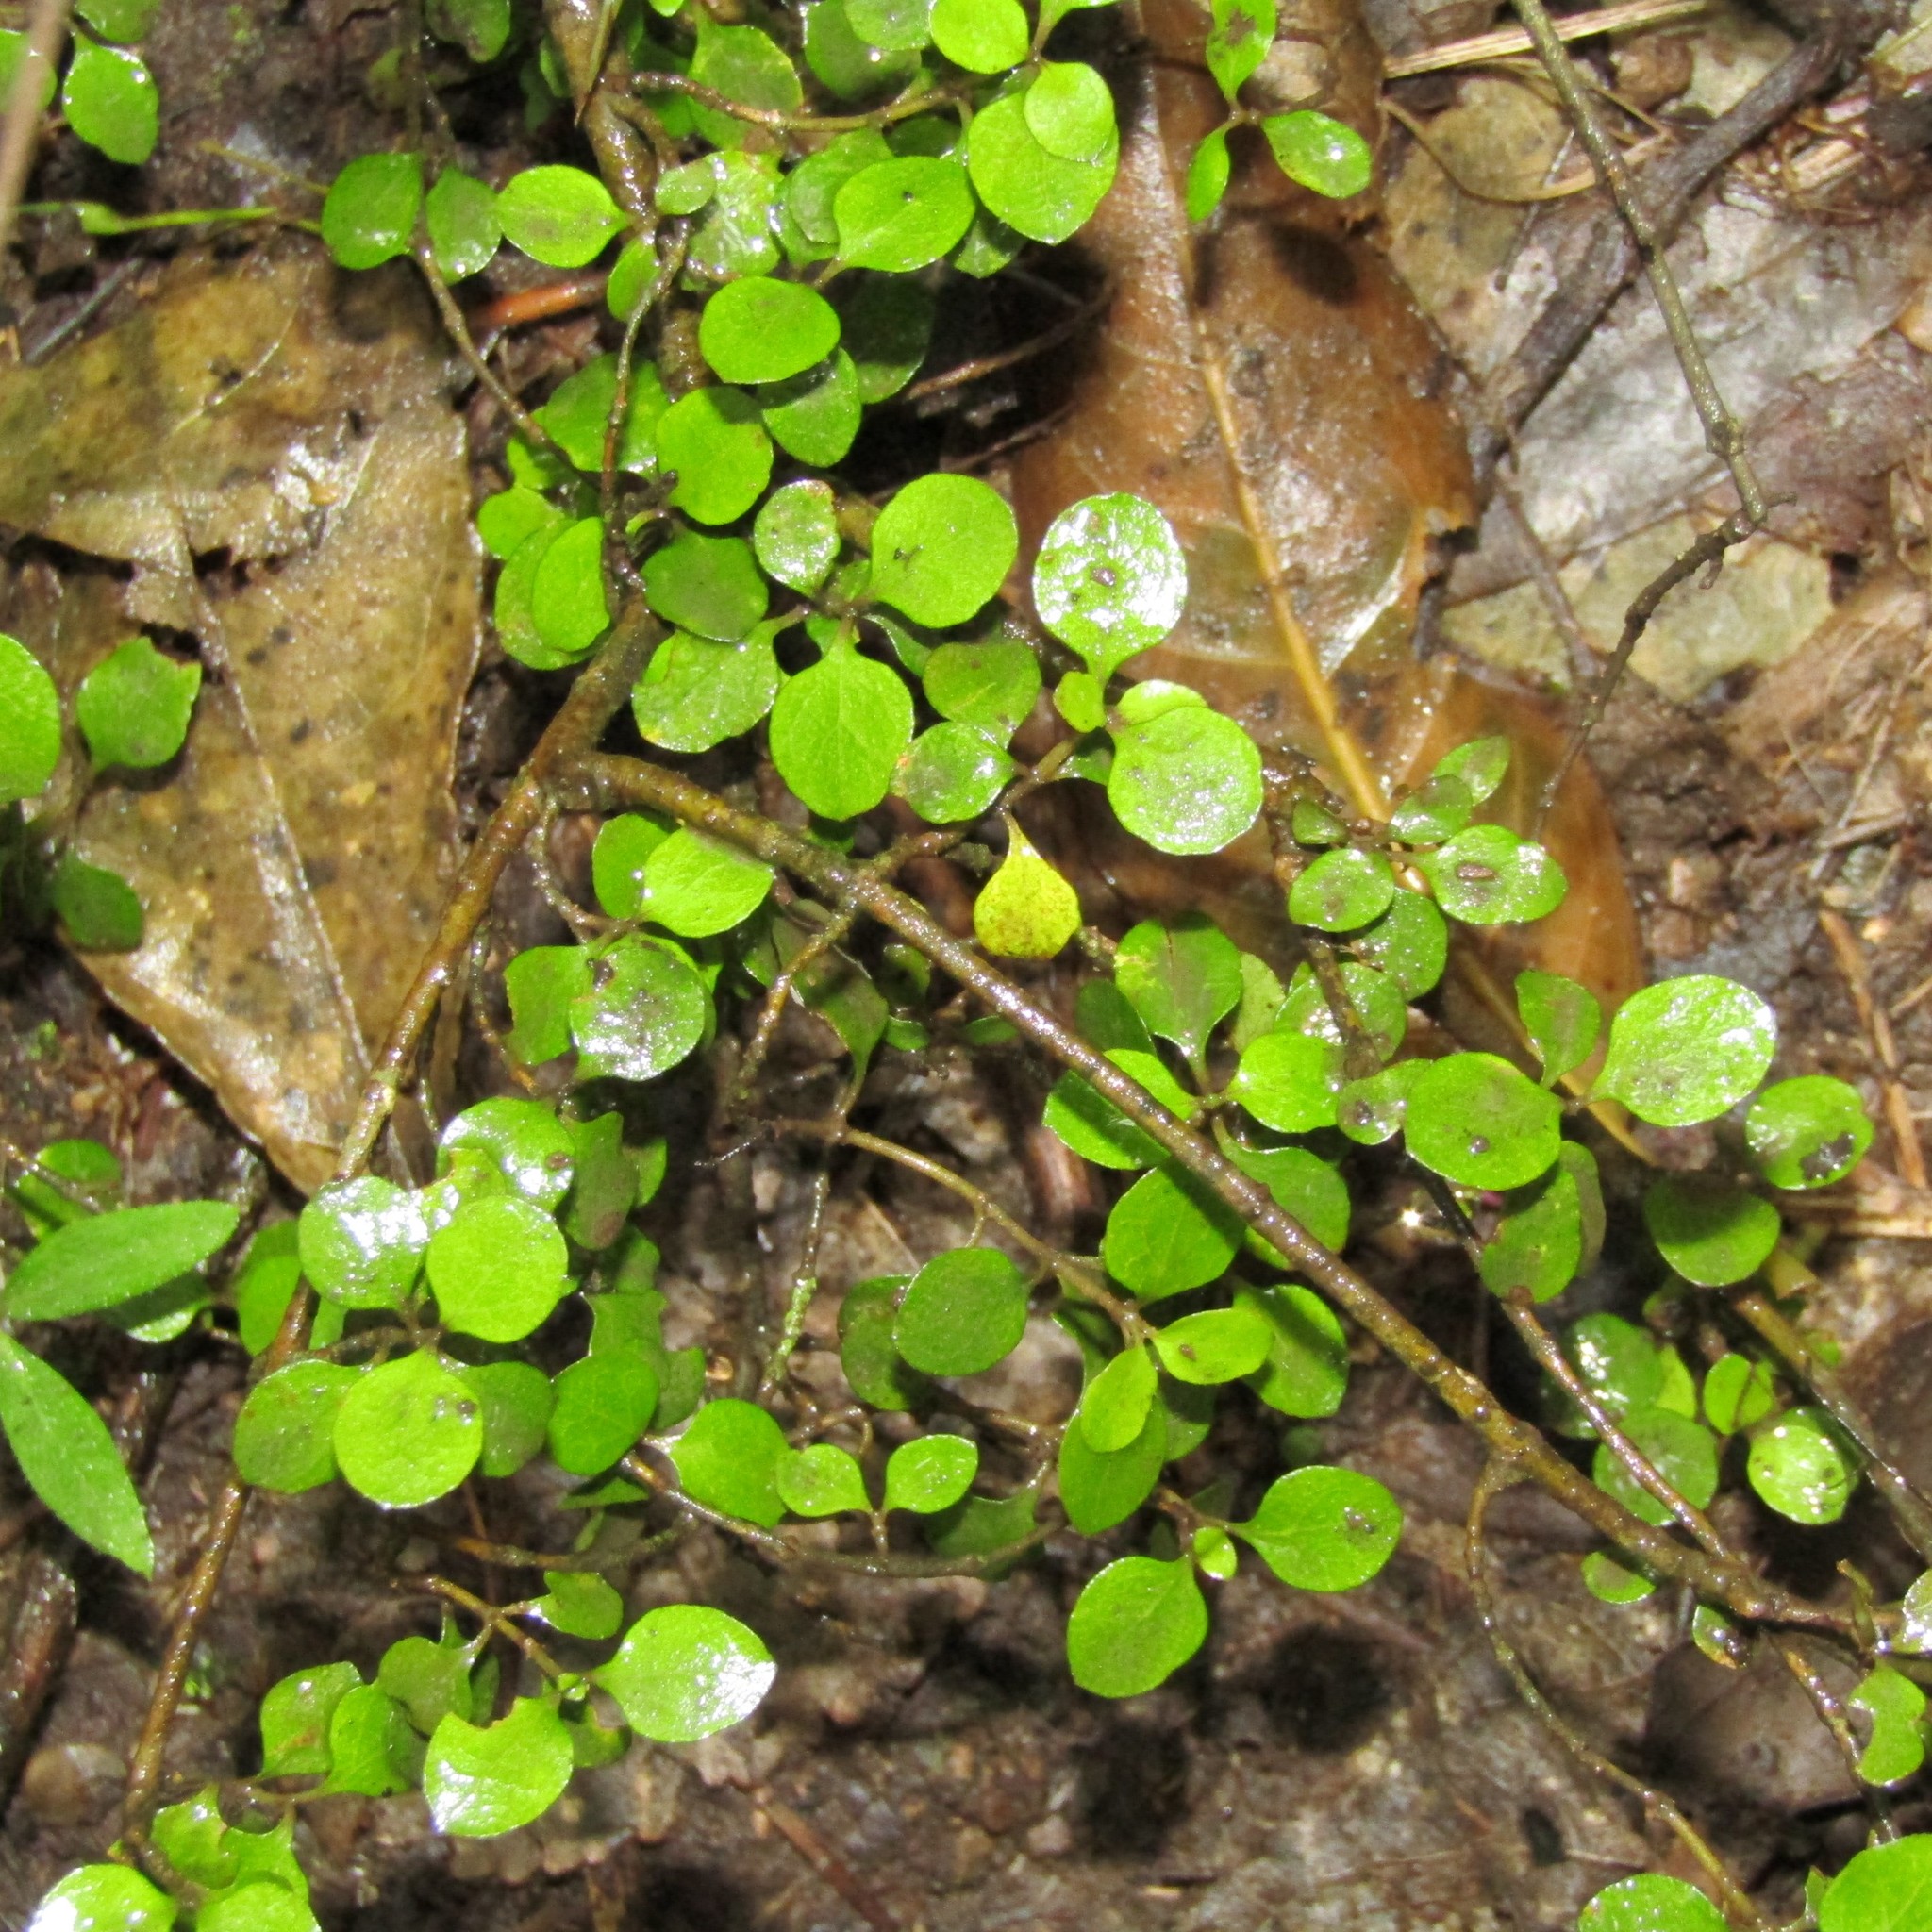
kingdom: Plantae
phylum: Tracheophyta
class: Magnoliopsida
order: Gentianales
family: Rubiaceae
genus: Coprosma
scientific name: Coprosma rhamnoides
